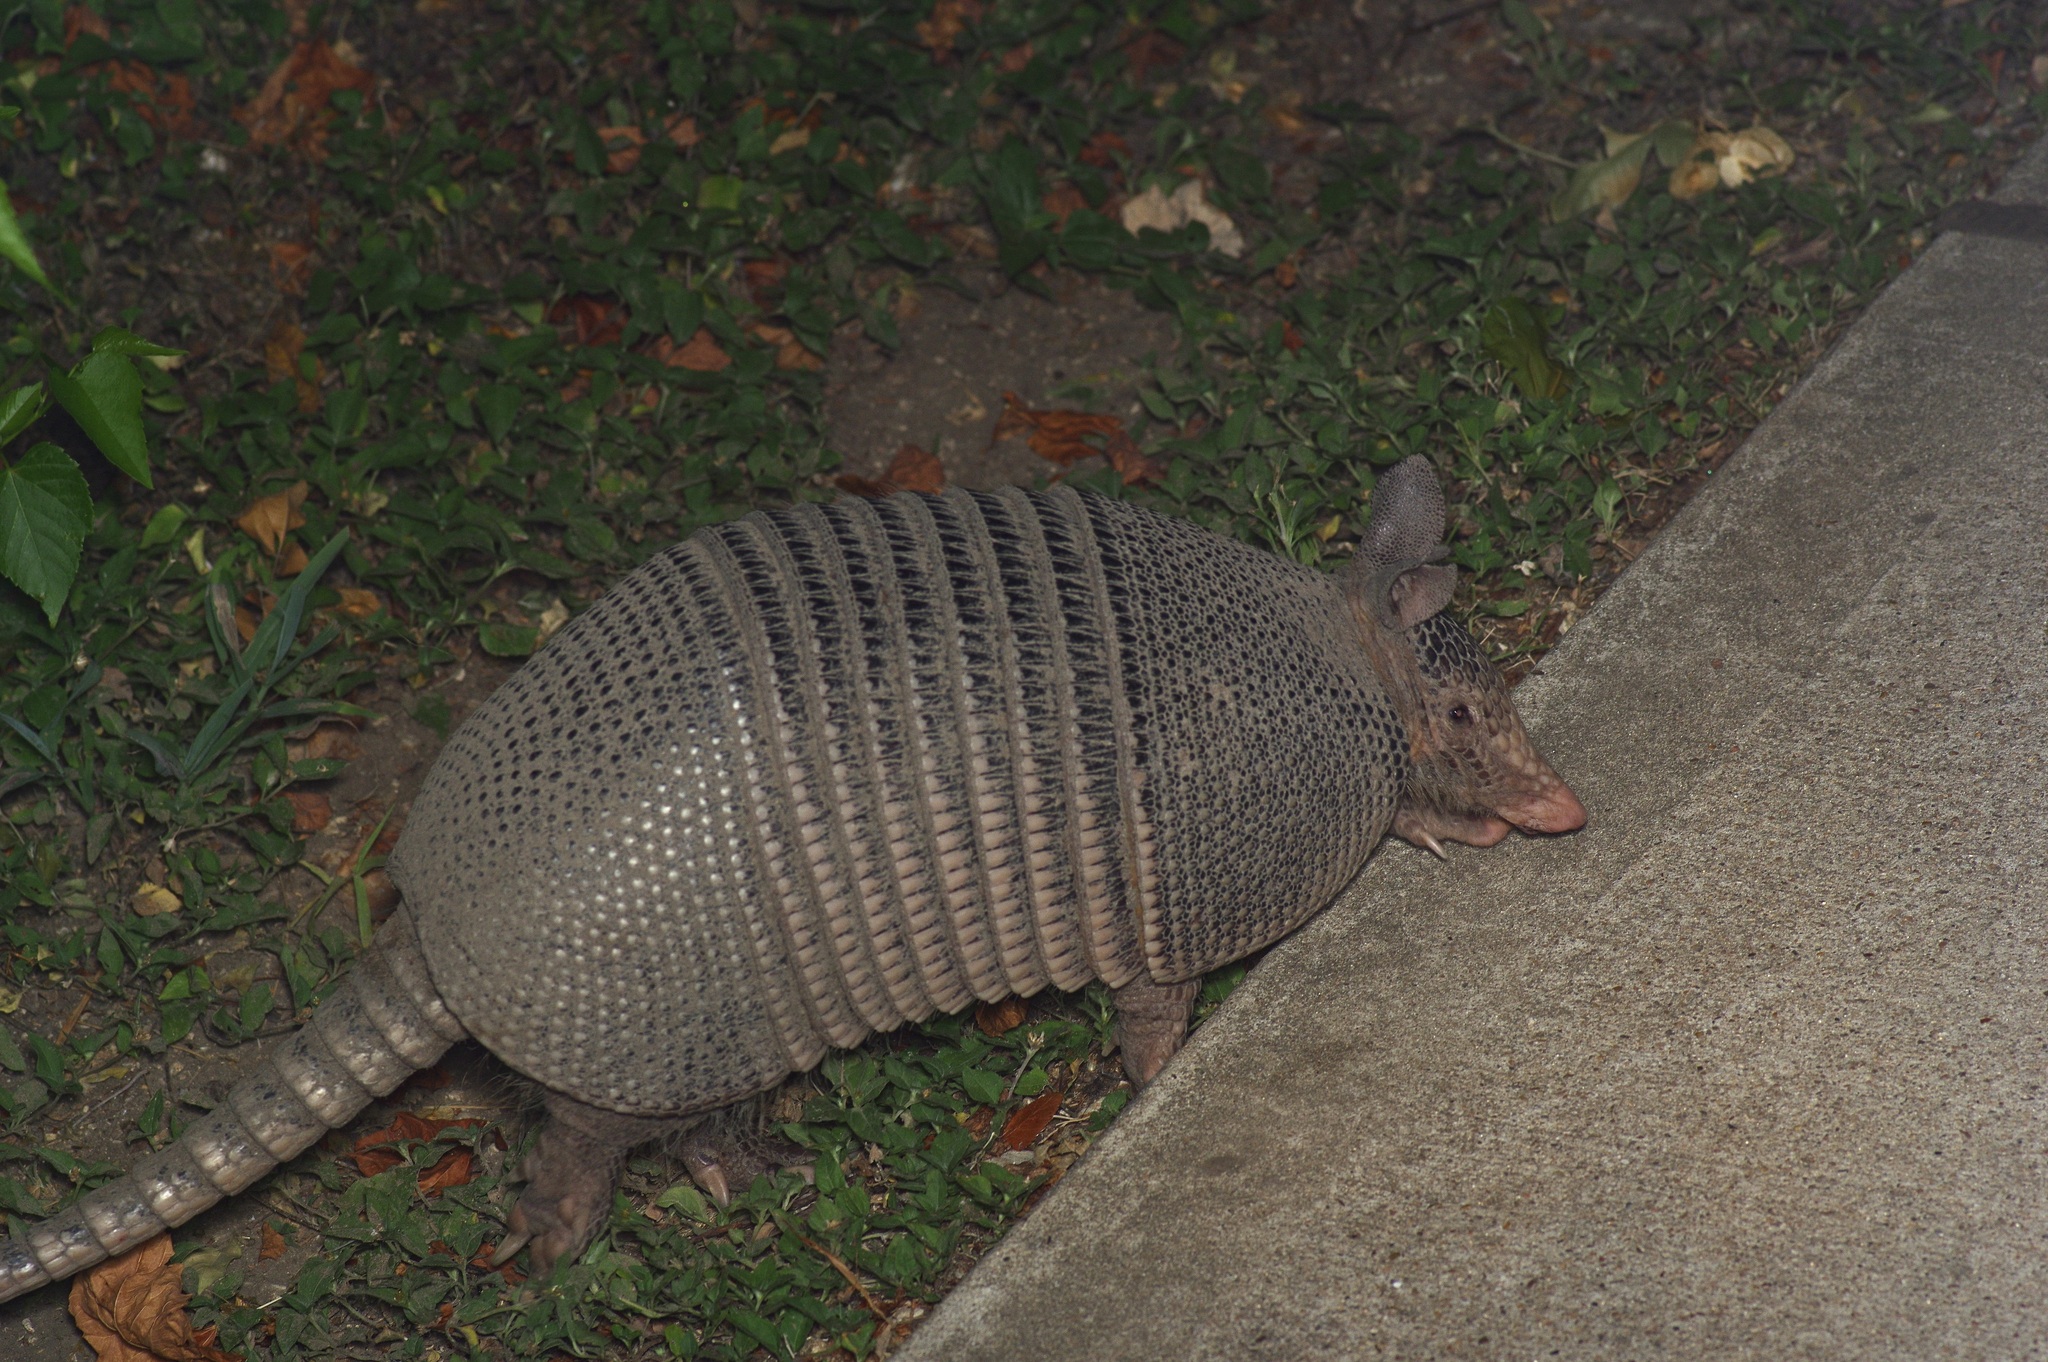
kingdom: Animalia
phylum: Chordata
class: Mammalia
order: Cingulata
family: Dasypodidae
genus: Dasypus
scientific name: Dasypus novemcinctus
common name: Nine-banded armadillo
